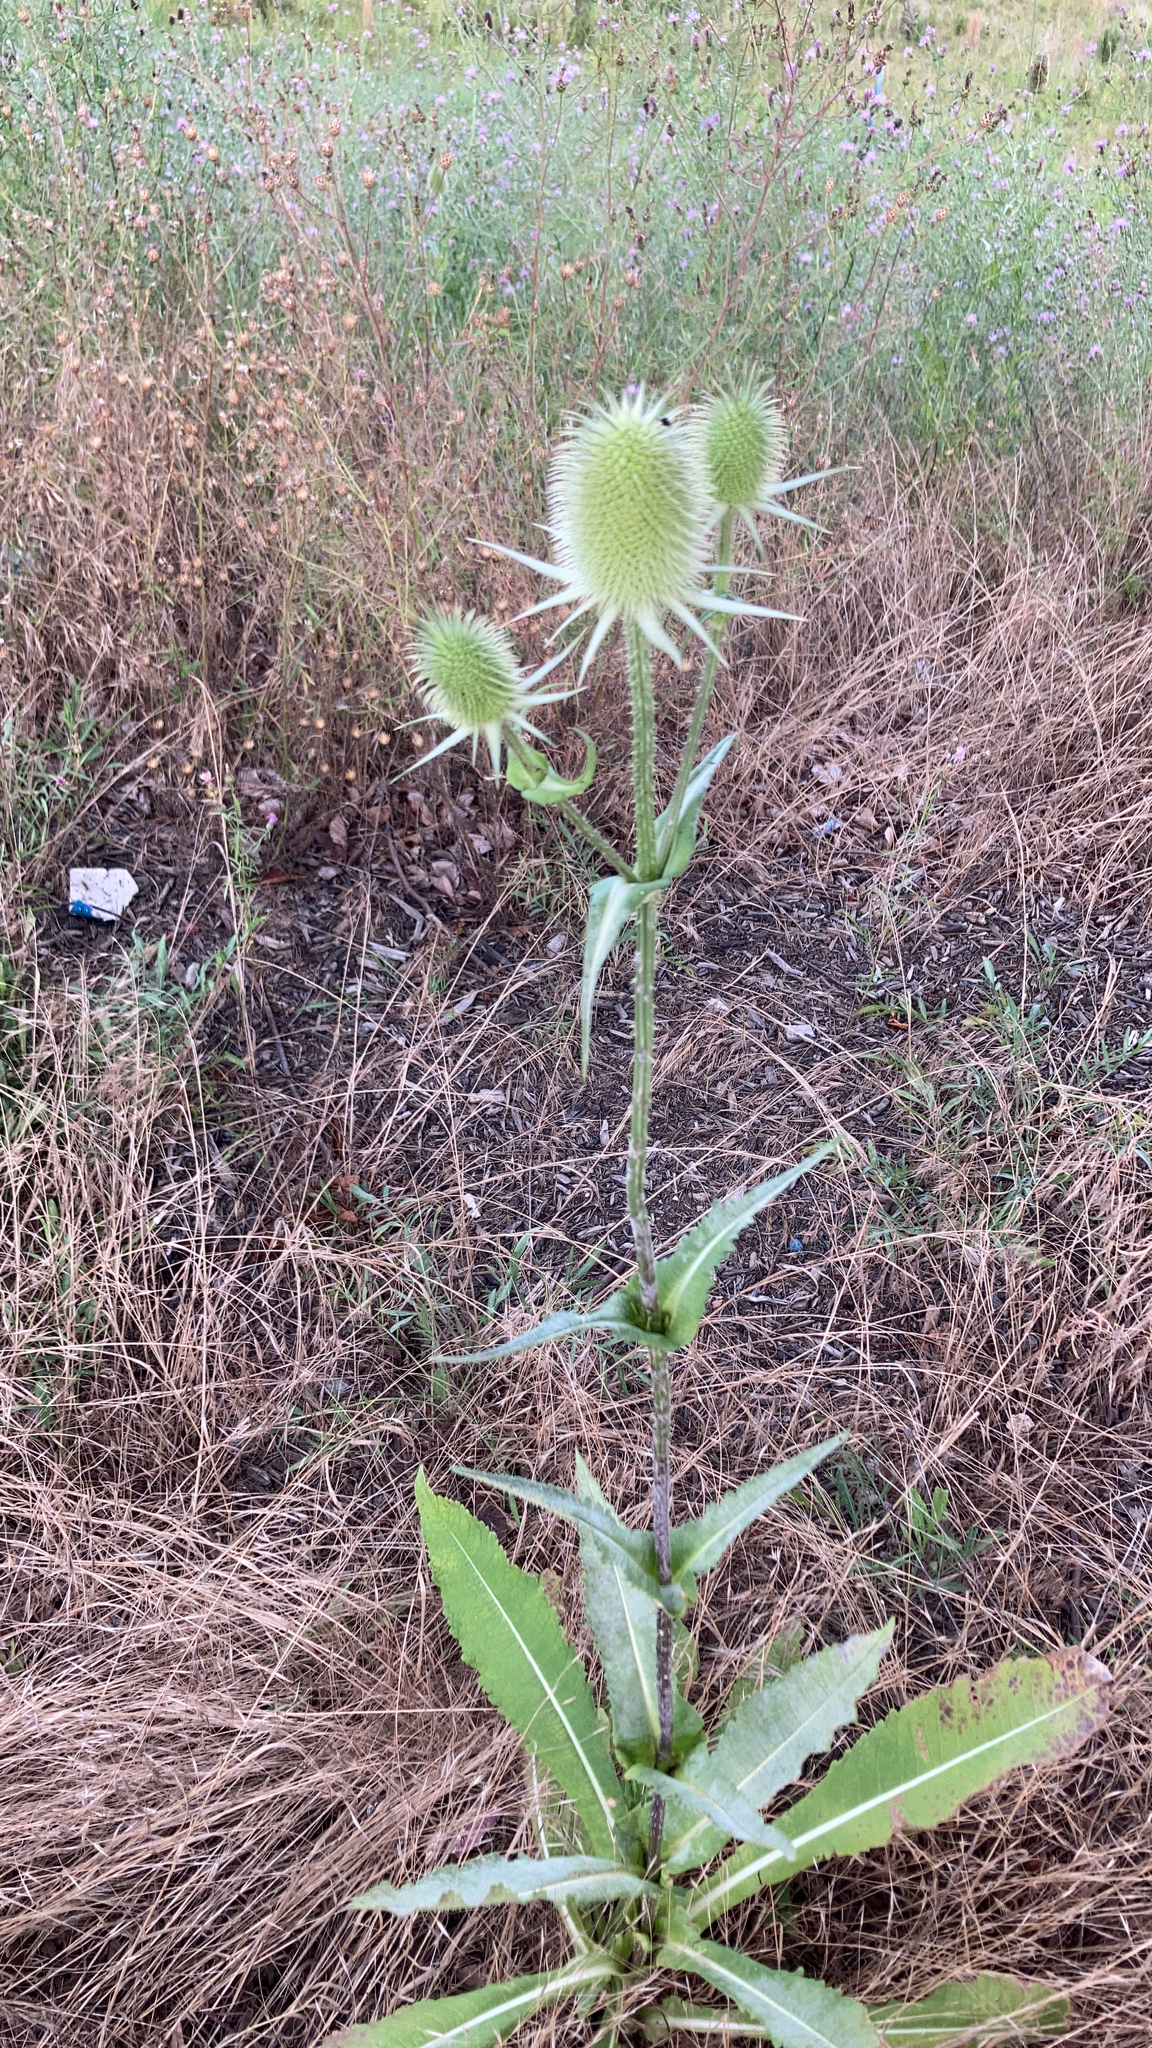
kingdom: Plantae
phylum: Tracheophyta
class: Magnoliopsida
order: Dipsacales
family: Caprifoliaceae
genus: Dipsacus
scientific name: Dipsacus laciniatus
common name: Cut-leaved teasel
